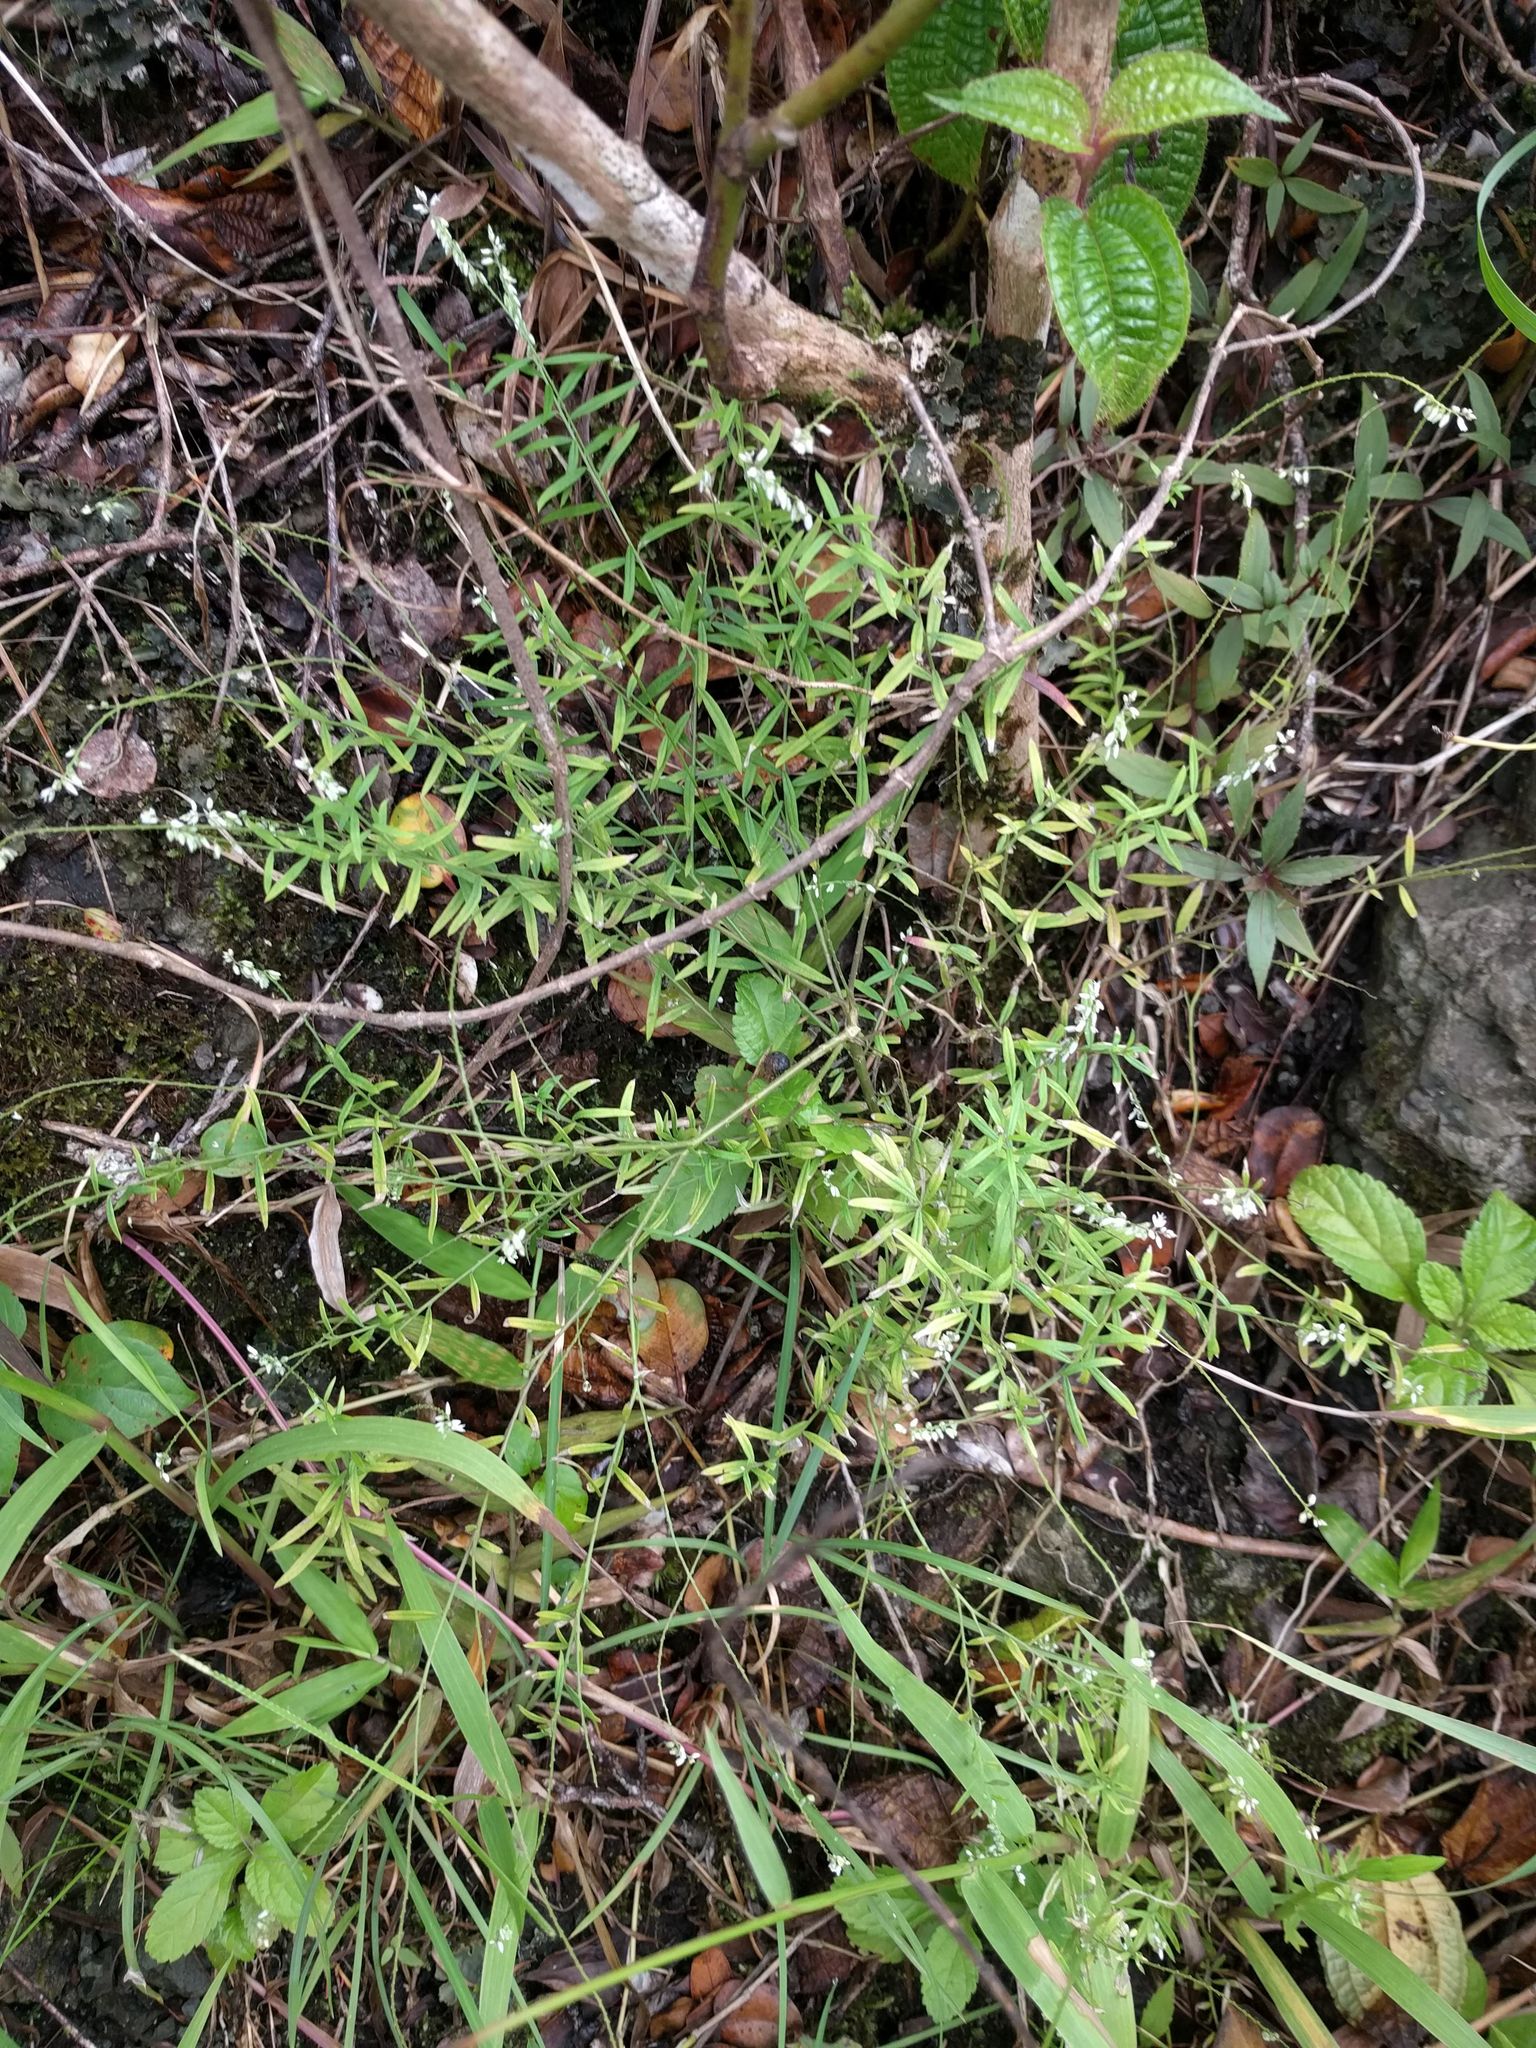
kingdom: Plantae
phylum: Tracheophyta
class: Magnoliopsida
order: Fabales
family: Polygalaceae
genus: Polygala
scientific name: Polygala paniculata
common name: Orosne
